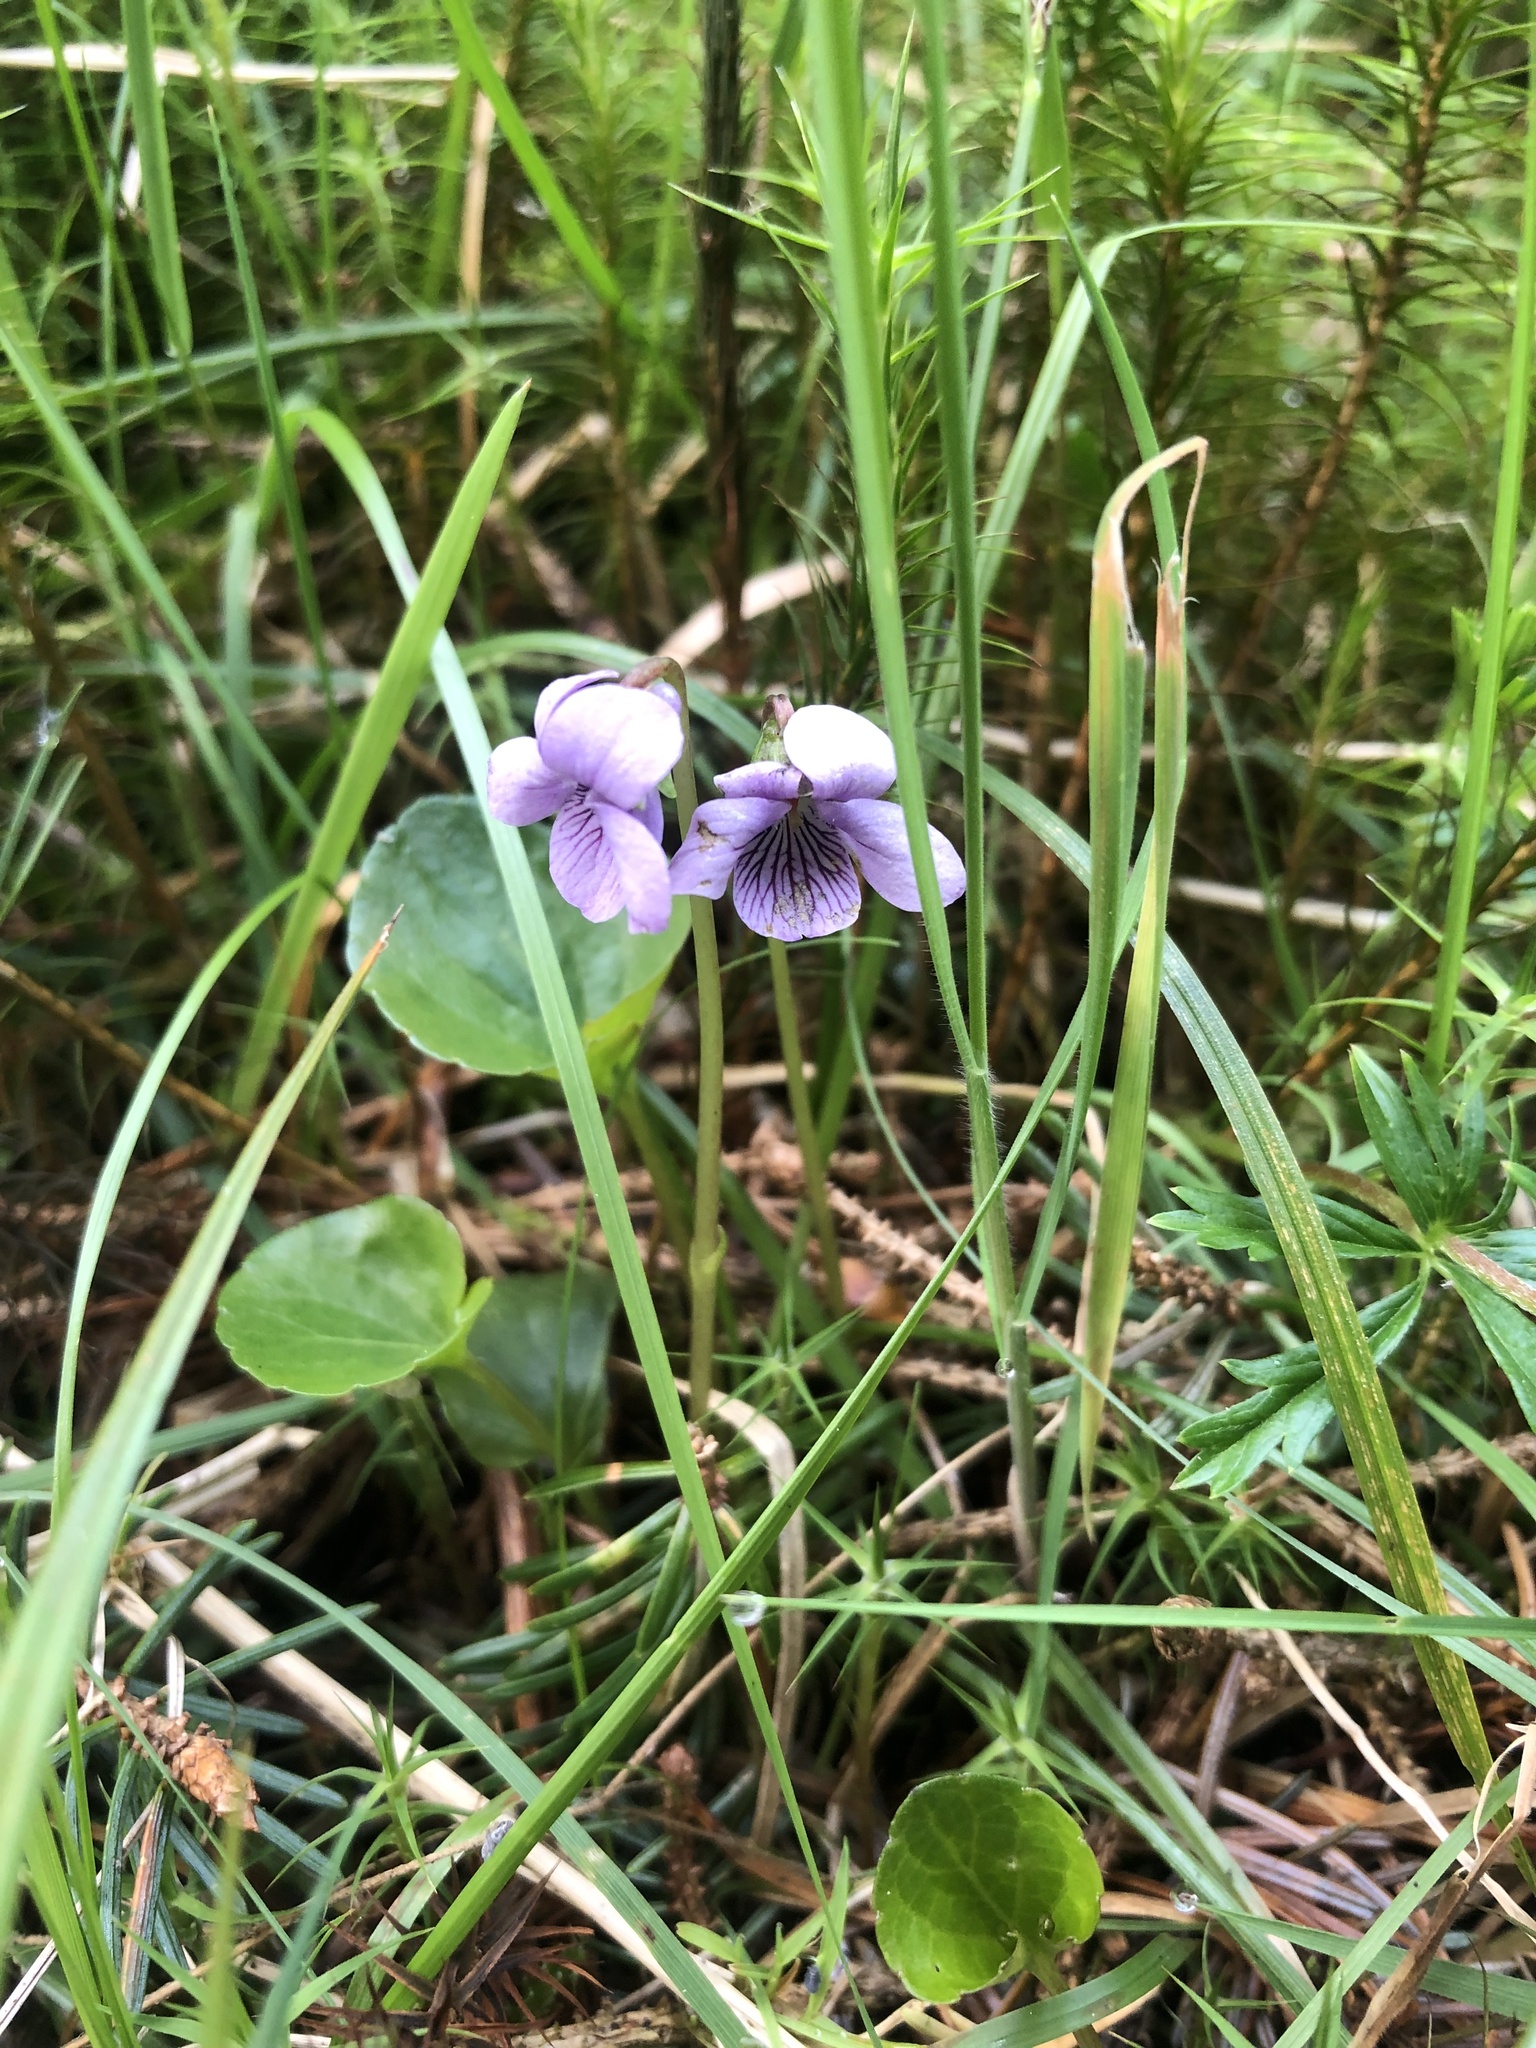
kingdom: Plantae
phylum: Tracheophyta
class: Magnoliopsida
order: Malpighiales
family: Violaceae
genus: Viola
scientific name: Viola palustris
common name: Marsh violet
